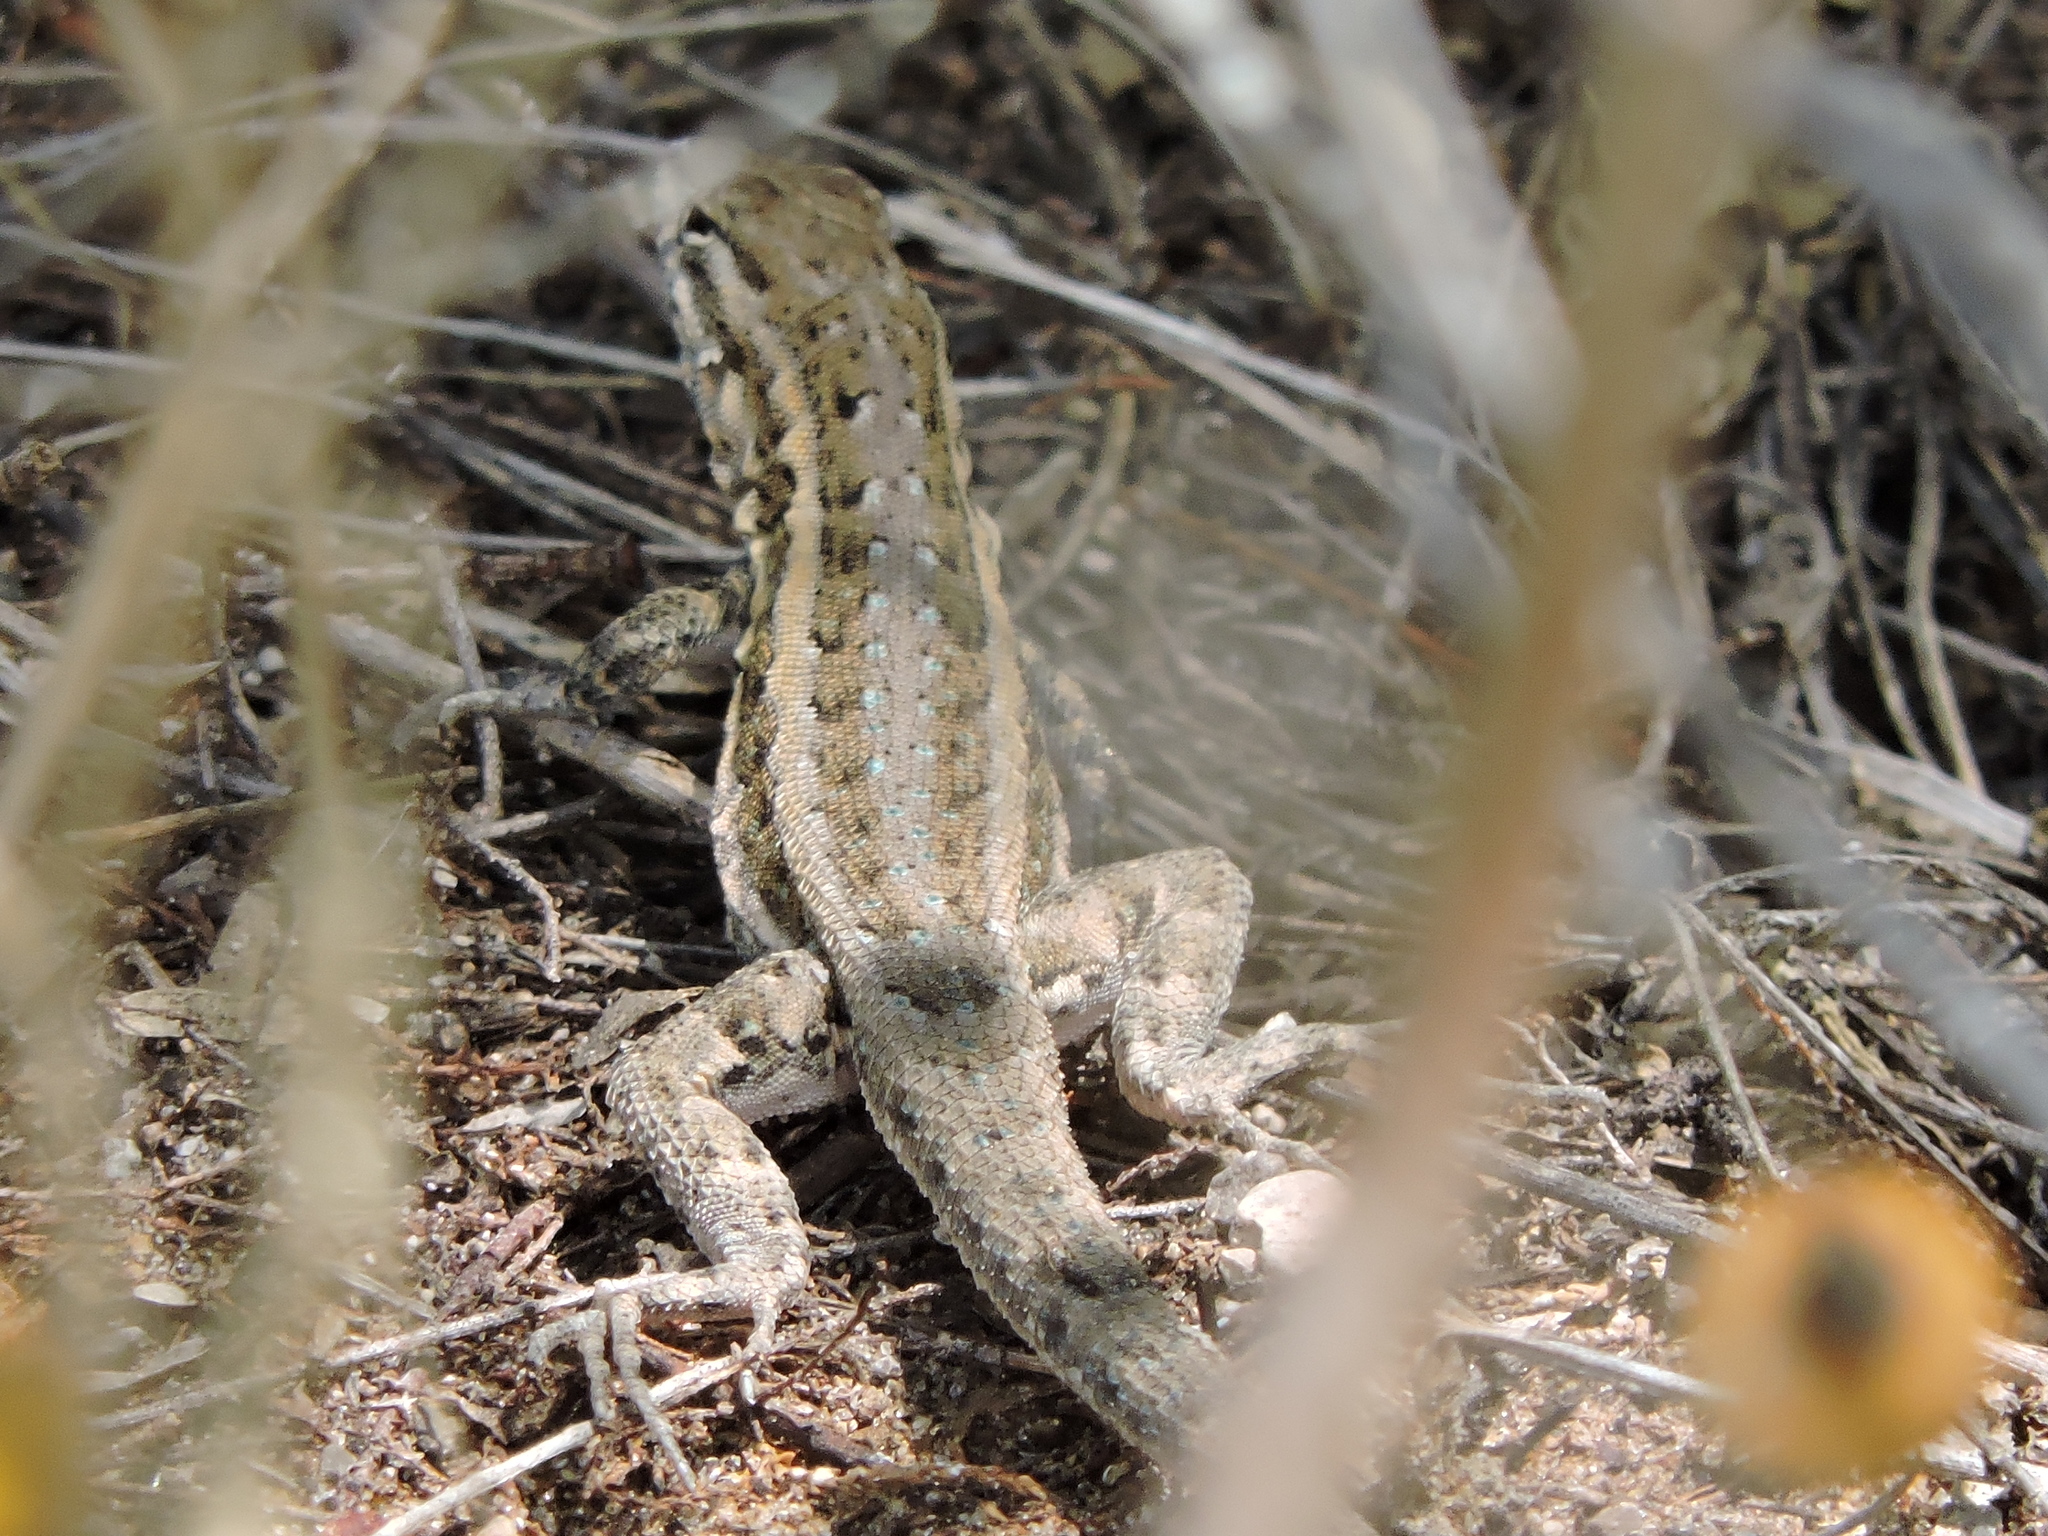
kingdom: Animalia
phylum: Chordata
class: Squamata
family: Phrynosomatidae
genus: Uta
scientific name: Uta stansburiana
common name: Side-blotched lizard
